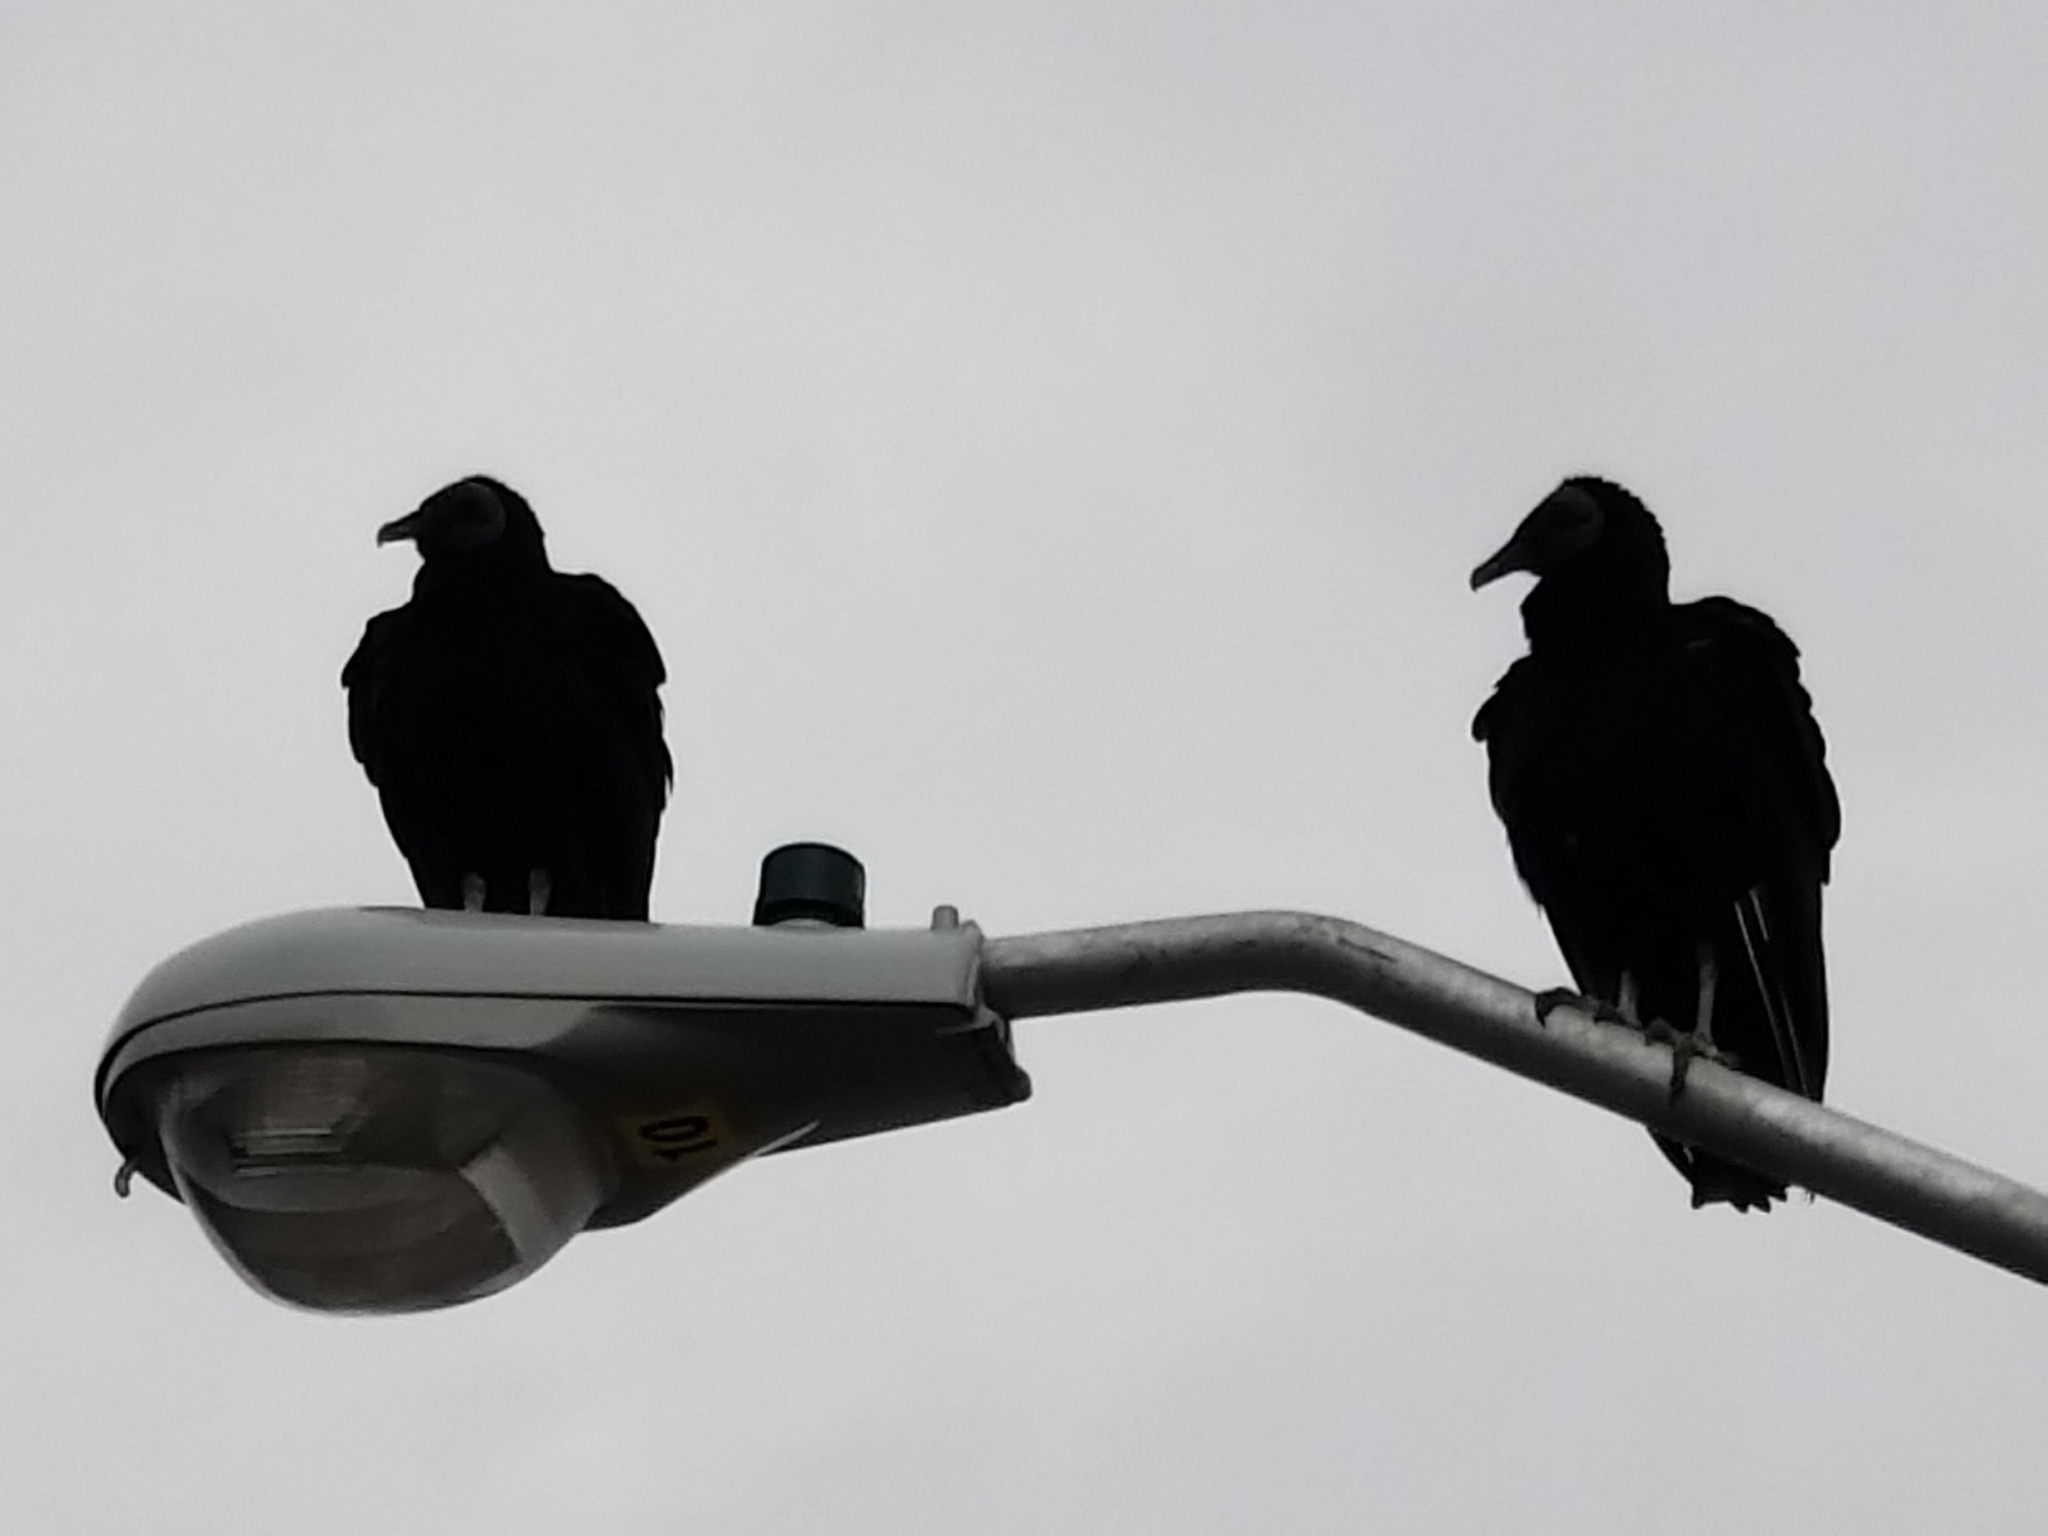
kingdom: Animalia
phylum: Chordata
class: Aves
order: Accipitriformes
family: Cathartidae
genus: Coragyps
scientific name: Coragyps atratus
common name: Black vulture
